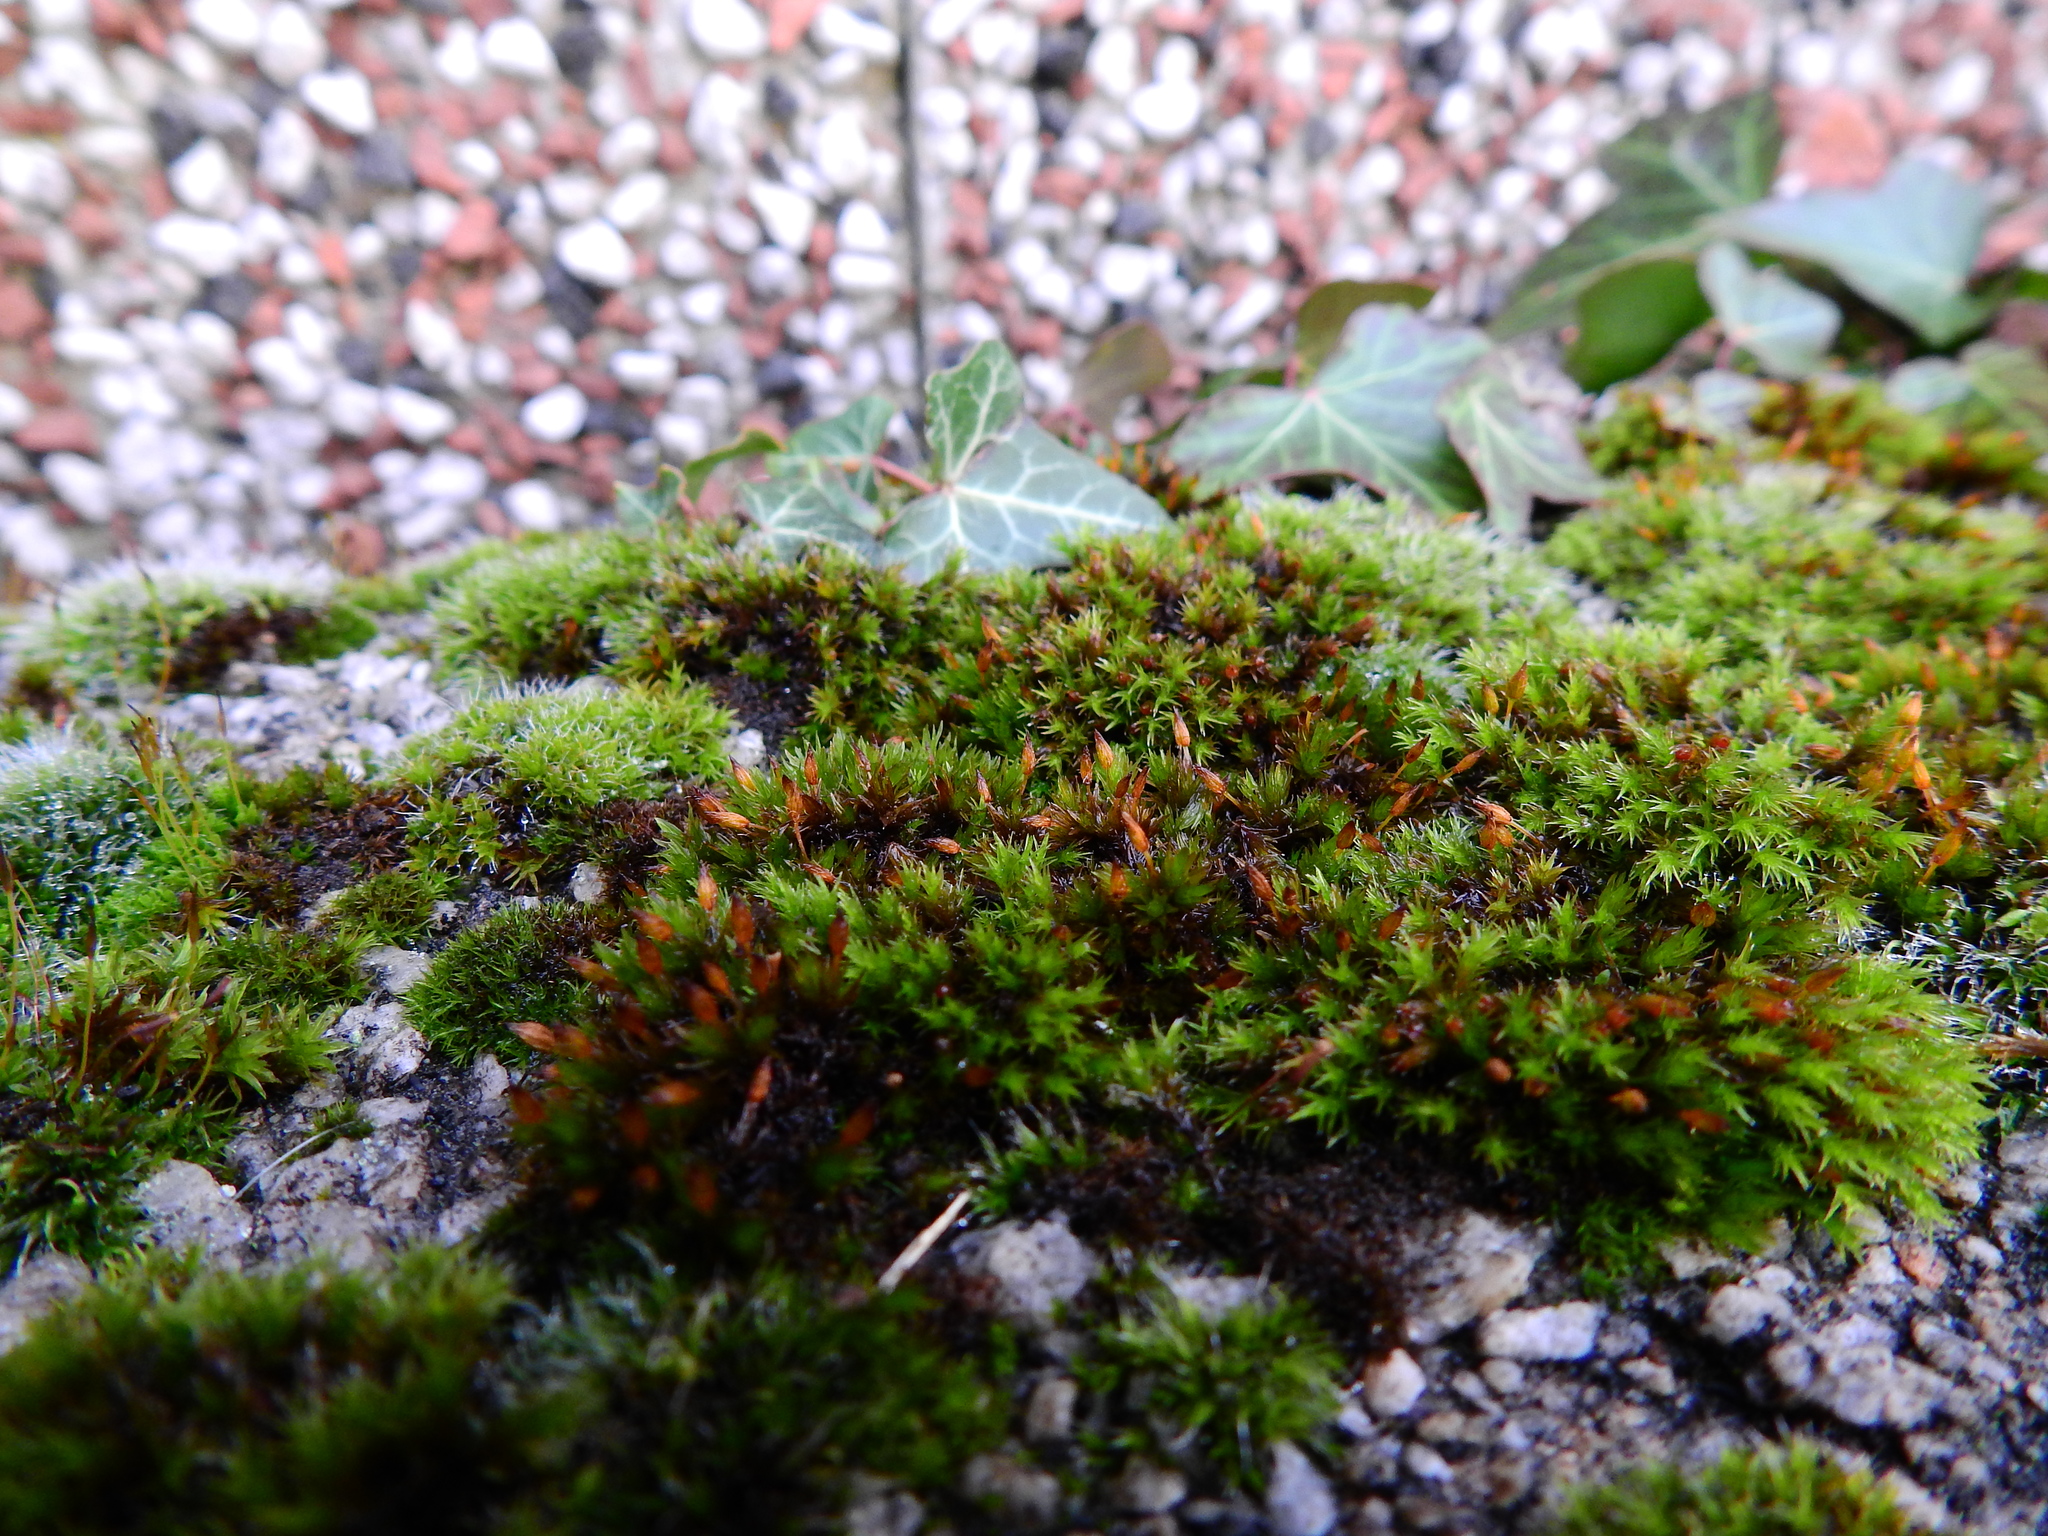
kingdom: Plantae
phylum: Bryophyta
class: Bryopsida
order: Orthotrichales
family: Orthotrichaceae
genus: Orthotrichum
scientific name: Orthotrichum anomalum
